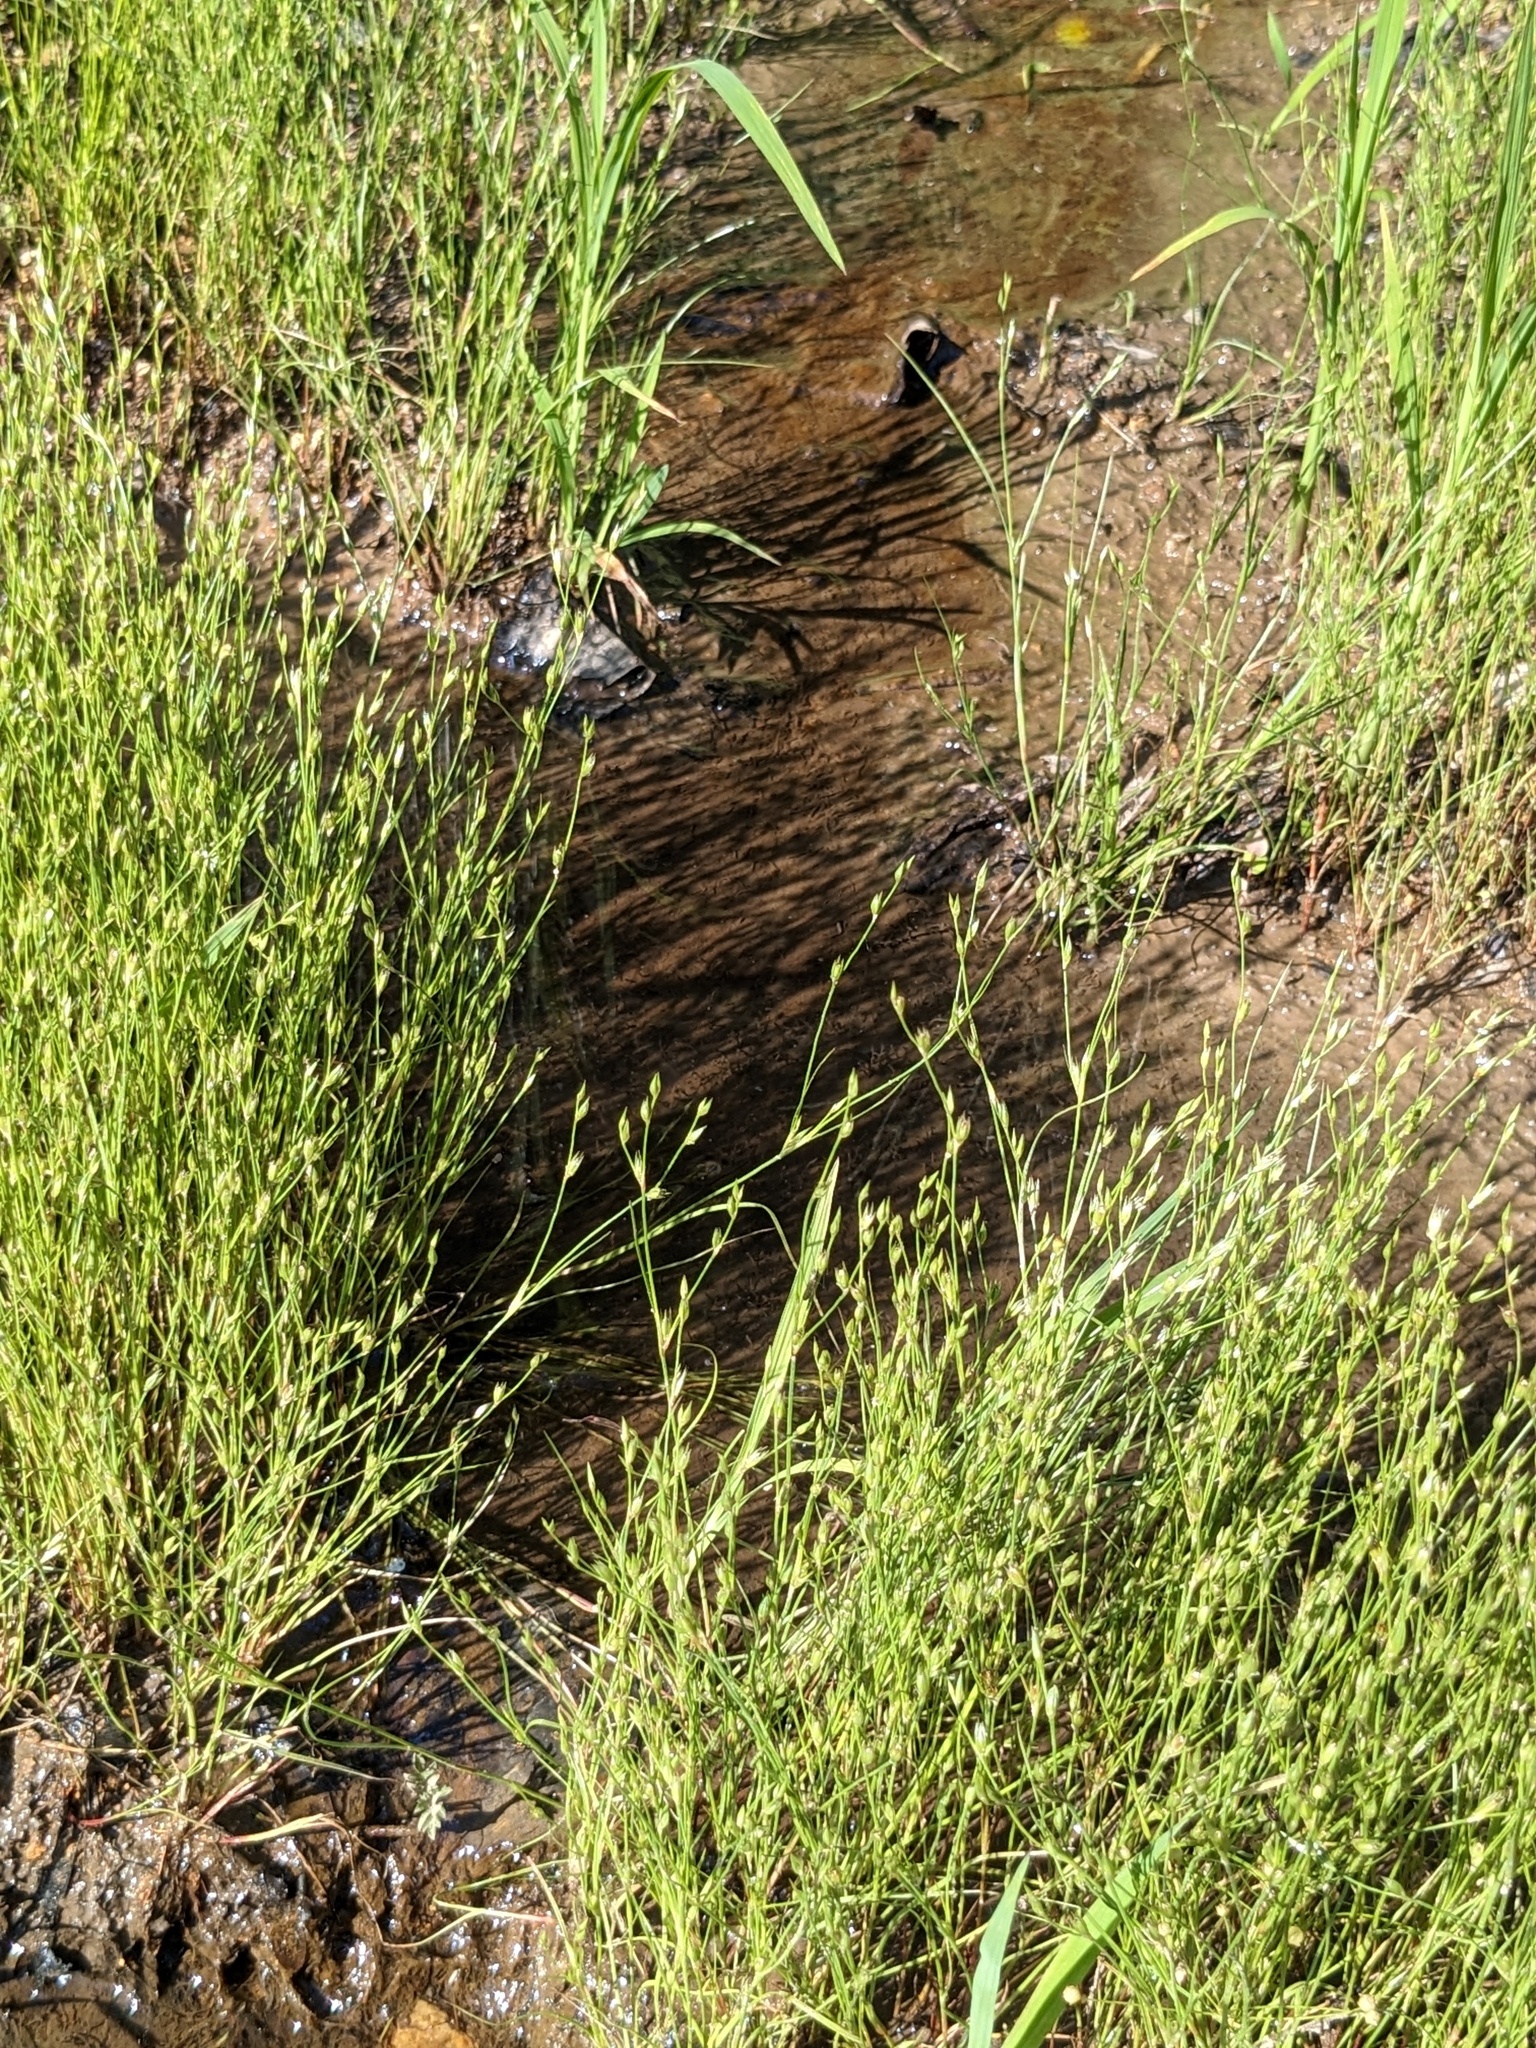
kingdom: Plantae
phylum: Tracheophyta
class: Liliopsida
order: Poales
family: Juncaceae
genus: Juncus
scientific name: Juncus bufonius
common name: Toad rush
